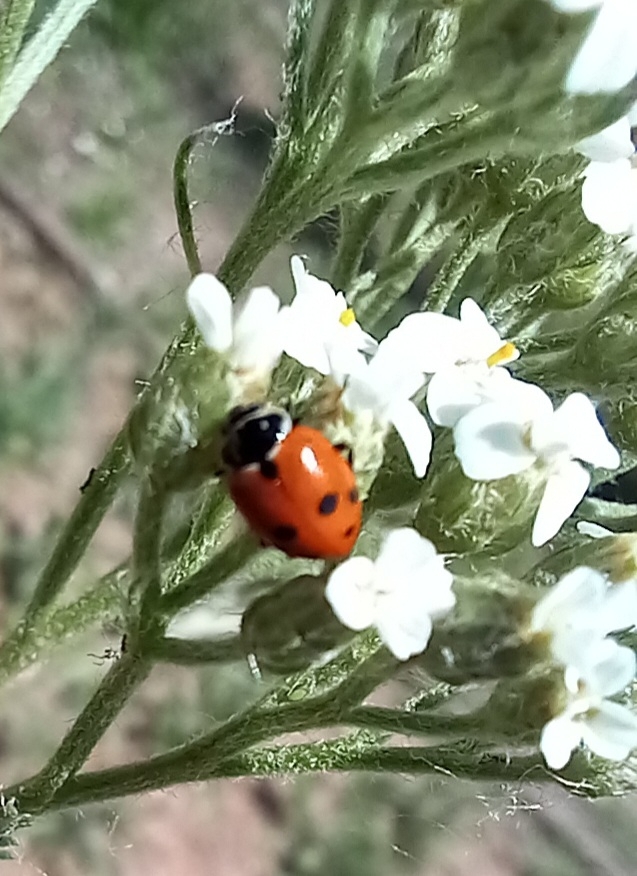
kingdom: Animalia
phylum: Arthropoda
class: Insecta
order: Coleoptera
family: Coccinellidae
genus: Hippodamia
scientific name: Hippodamia variegata
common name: Ladybird beetle
